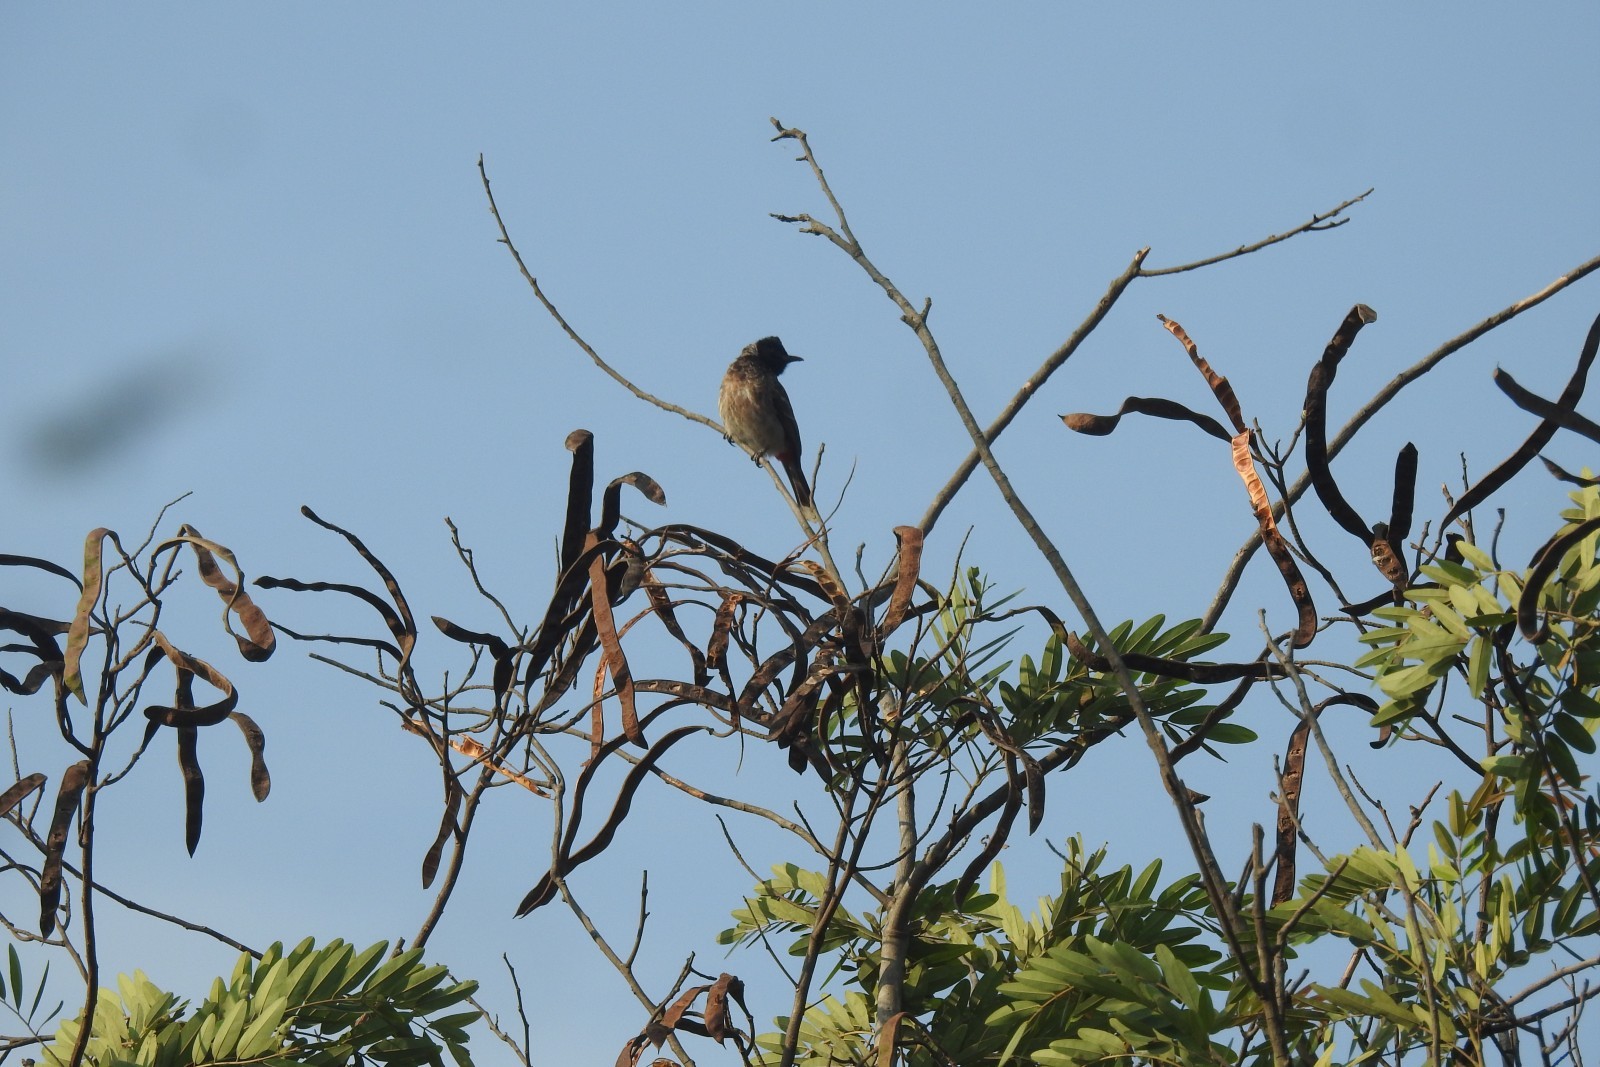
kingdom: Animalia
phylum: Chordata
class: Aves
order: Passeriformes
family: Pycnonotidae
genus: Pycnonotus
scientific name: Pycnonotus cafer
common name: Red-vented bulbul
